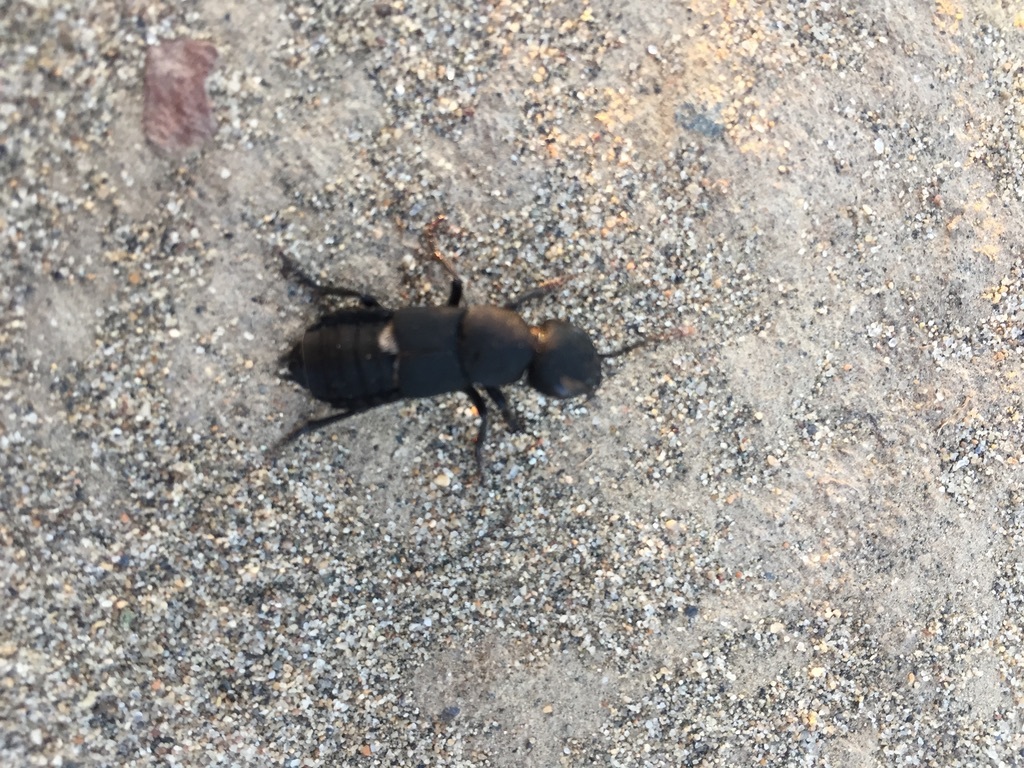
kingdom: Animalia
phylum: Arthropoda
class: Insecta
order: Coleoptera
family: Staphylinidae
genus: Ocypus
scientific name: Ocypus olens
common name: Devil's coach-horse
